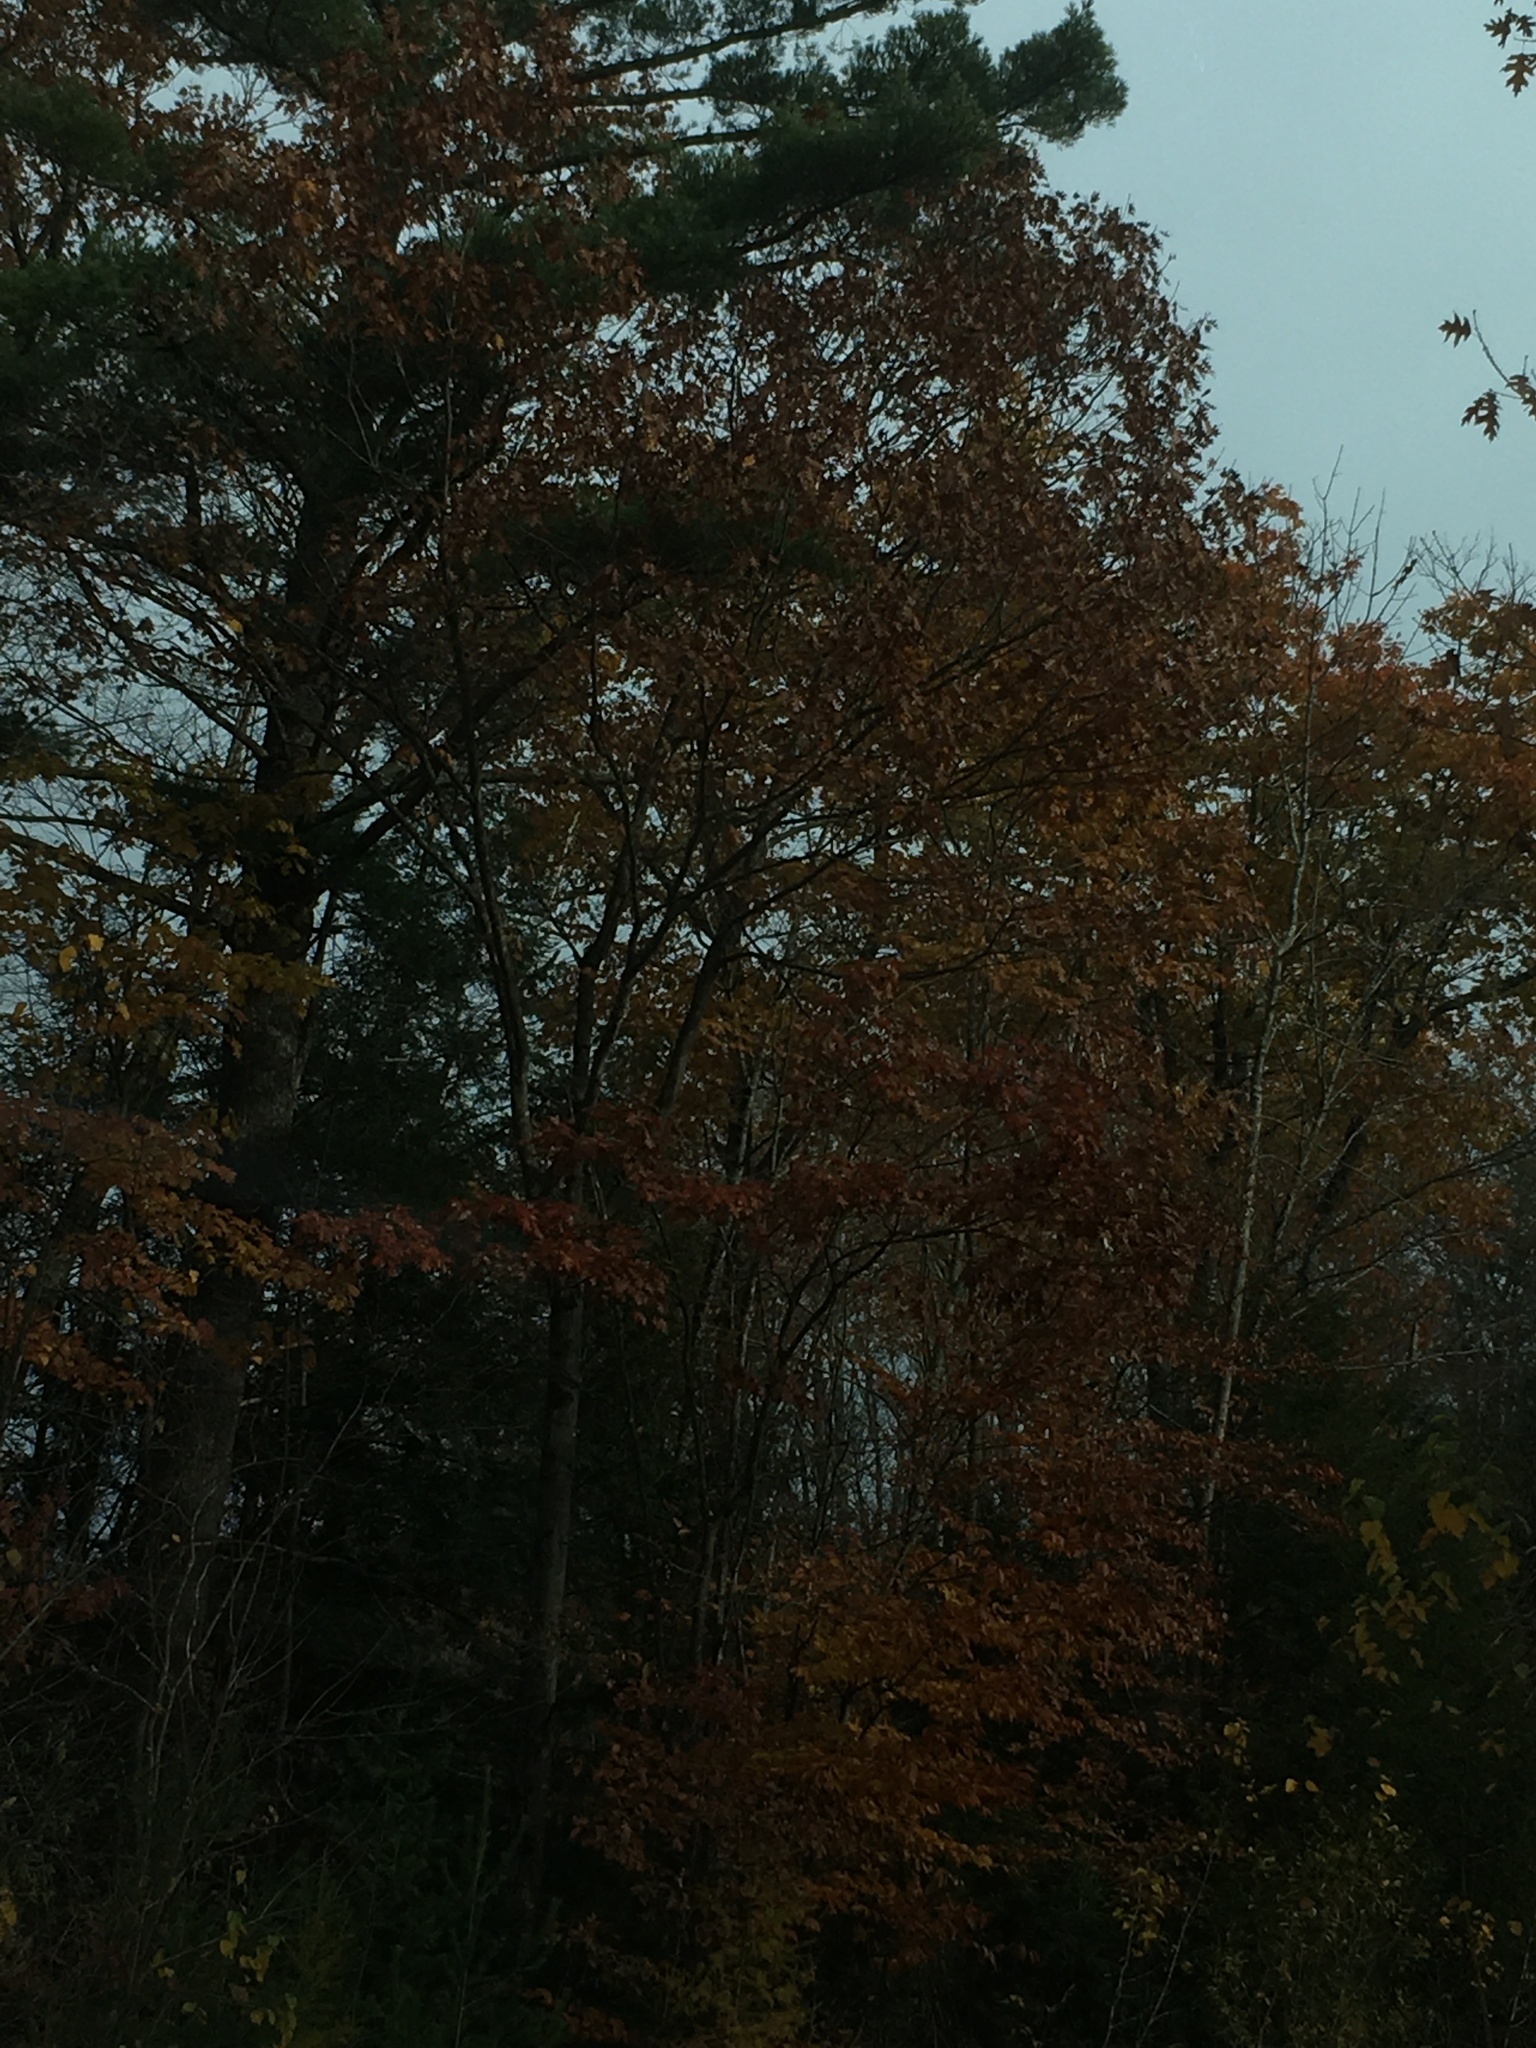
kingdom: Plantae
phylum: Tracheophyta
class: Magnoliopsida
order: Fagales
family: Fagaceae
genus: Quercus
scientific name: Quercus rubra
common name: Red oak
